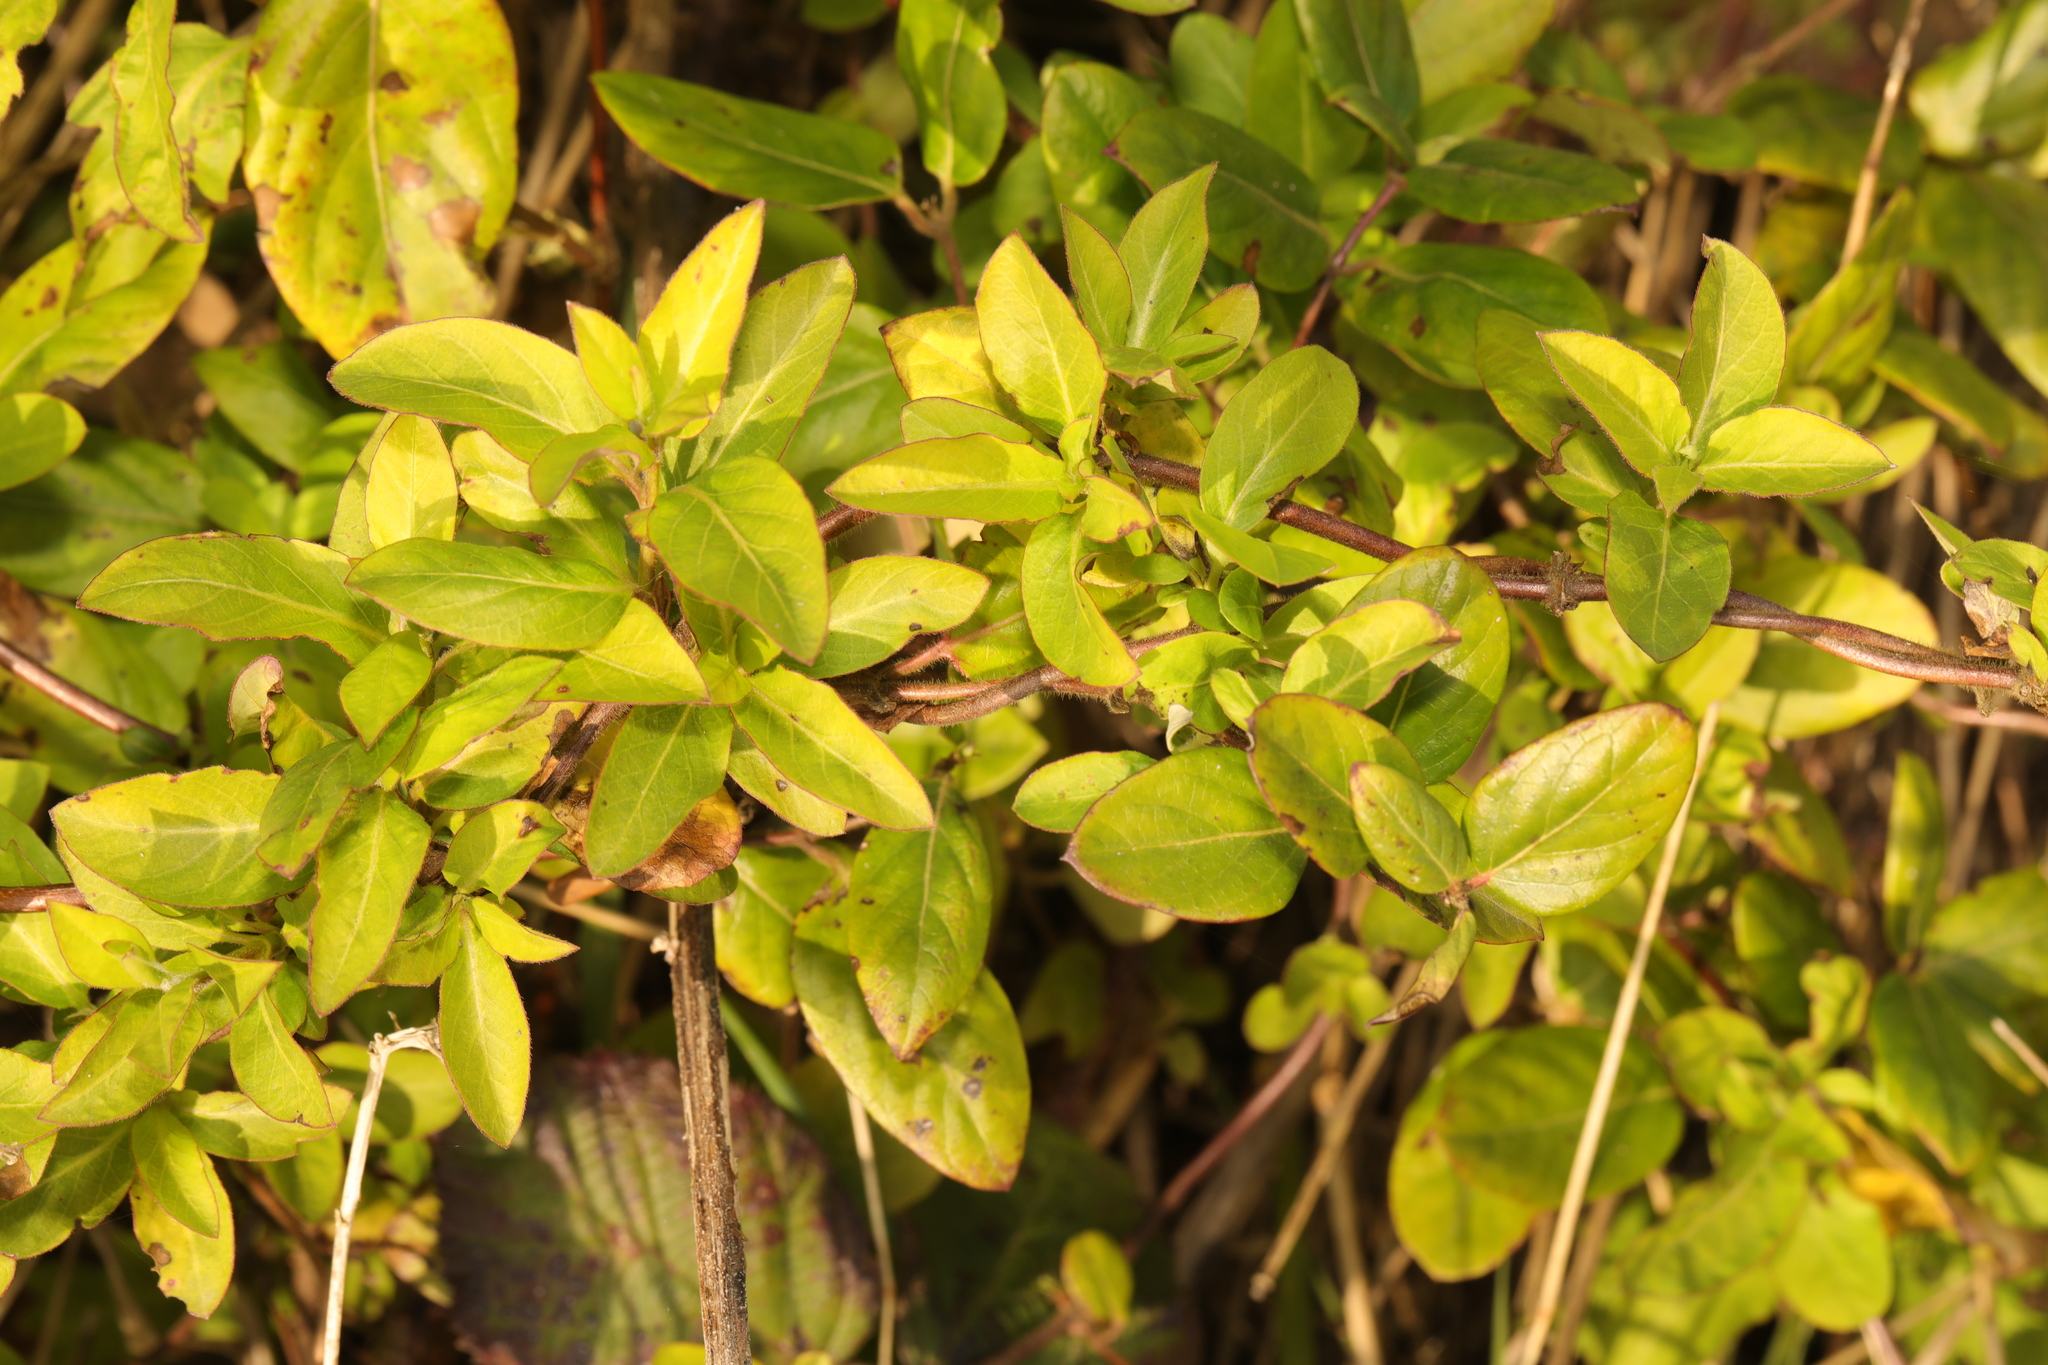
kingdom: Plantae
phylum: Tracheophyta
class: Magnoliopsida
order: Dipsacales
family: Caprifoliaceae
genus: Lonicera
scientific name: Lonicera japonica
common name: Japanese honeysuckle
